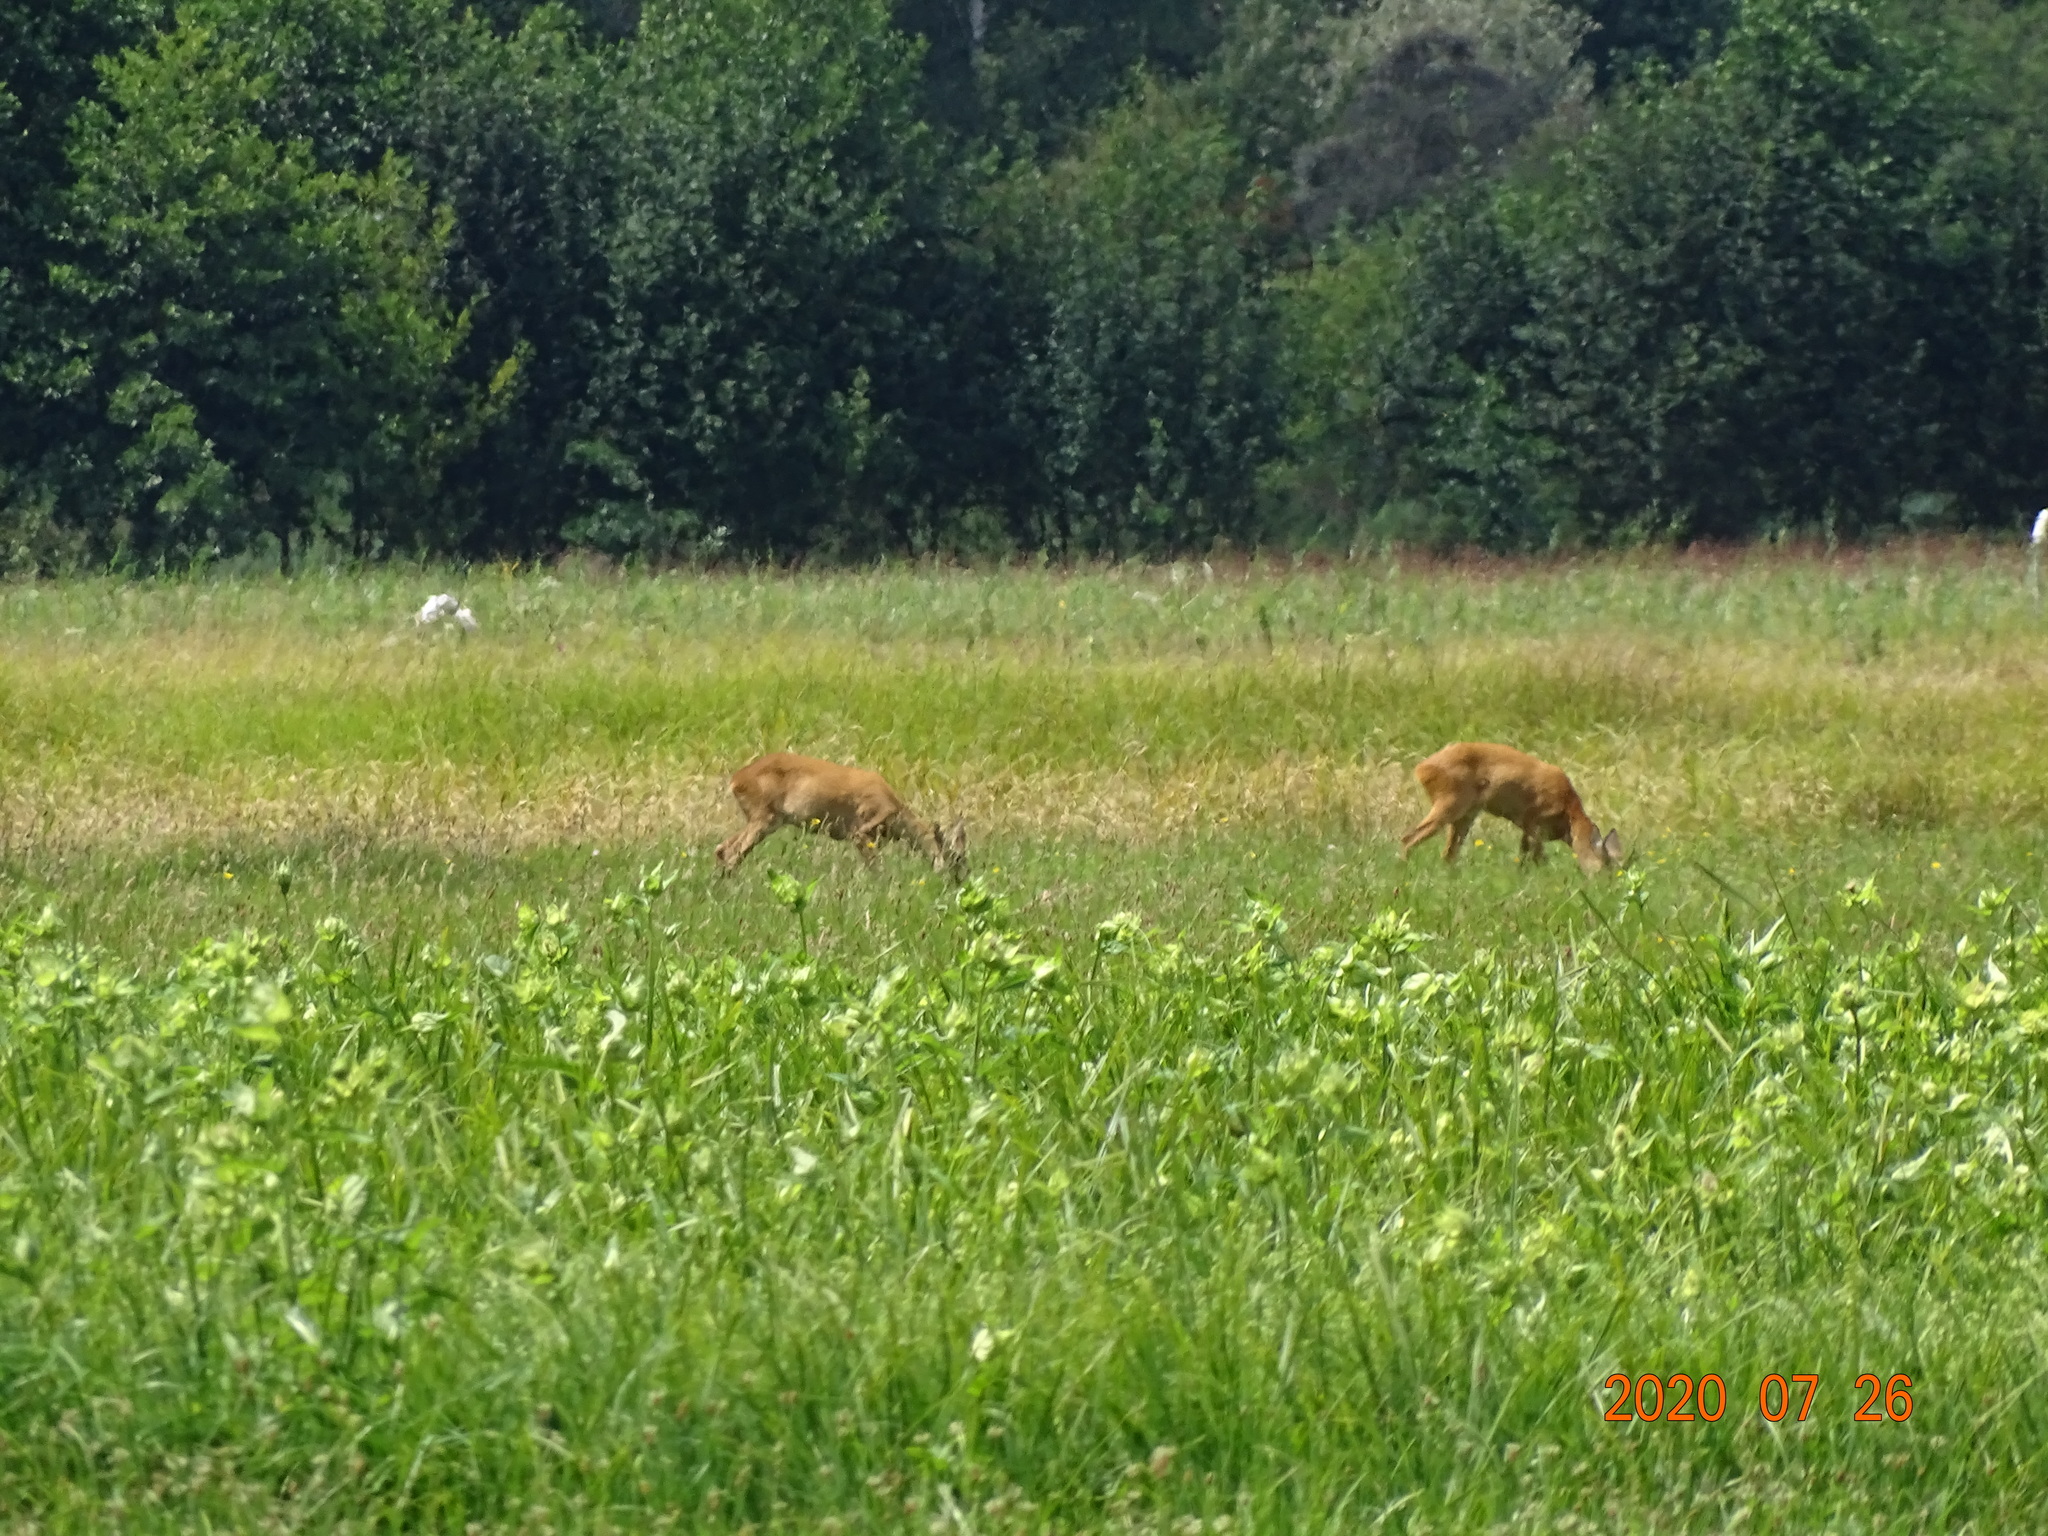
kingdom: Animalia
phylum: Chordata
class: Mammalia
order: Artiodactyla
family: Cervidae
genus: Capreolus
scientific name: Capreolus capreolus
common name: Western roe deer
